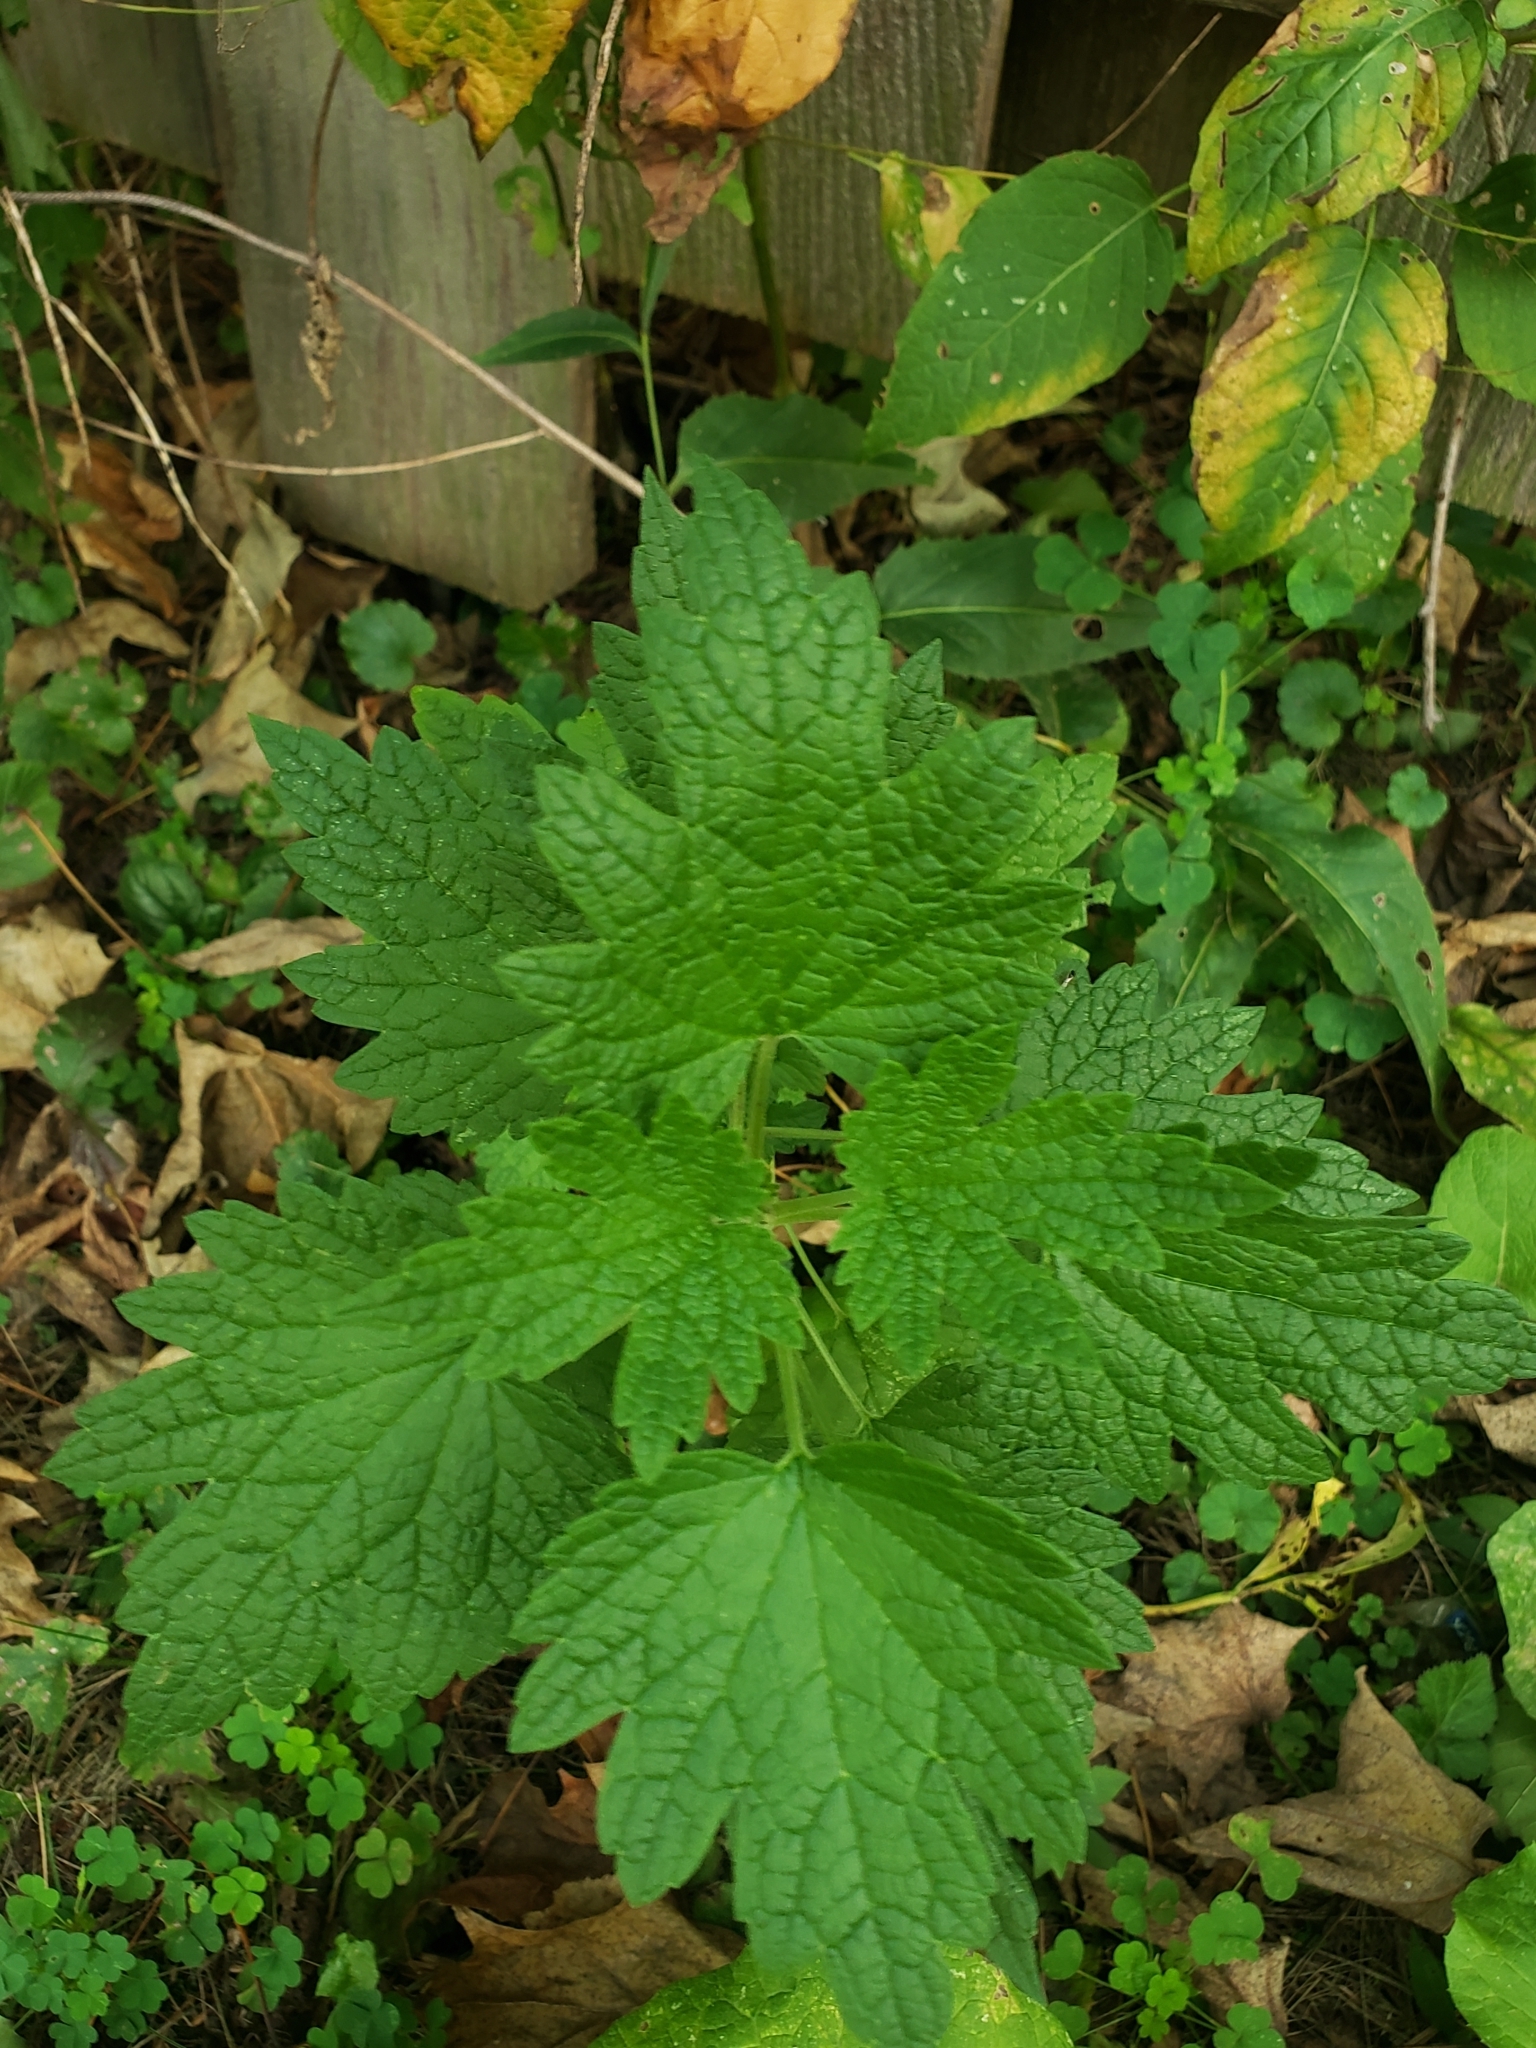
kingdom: Plantae
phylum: Tracheophyta
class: Magnoliopsida
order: Lamiales
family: Lamiaceae
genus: Leonurus
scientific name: Leonurus cardiaca
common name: Motherwort
